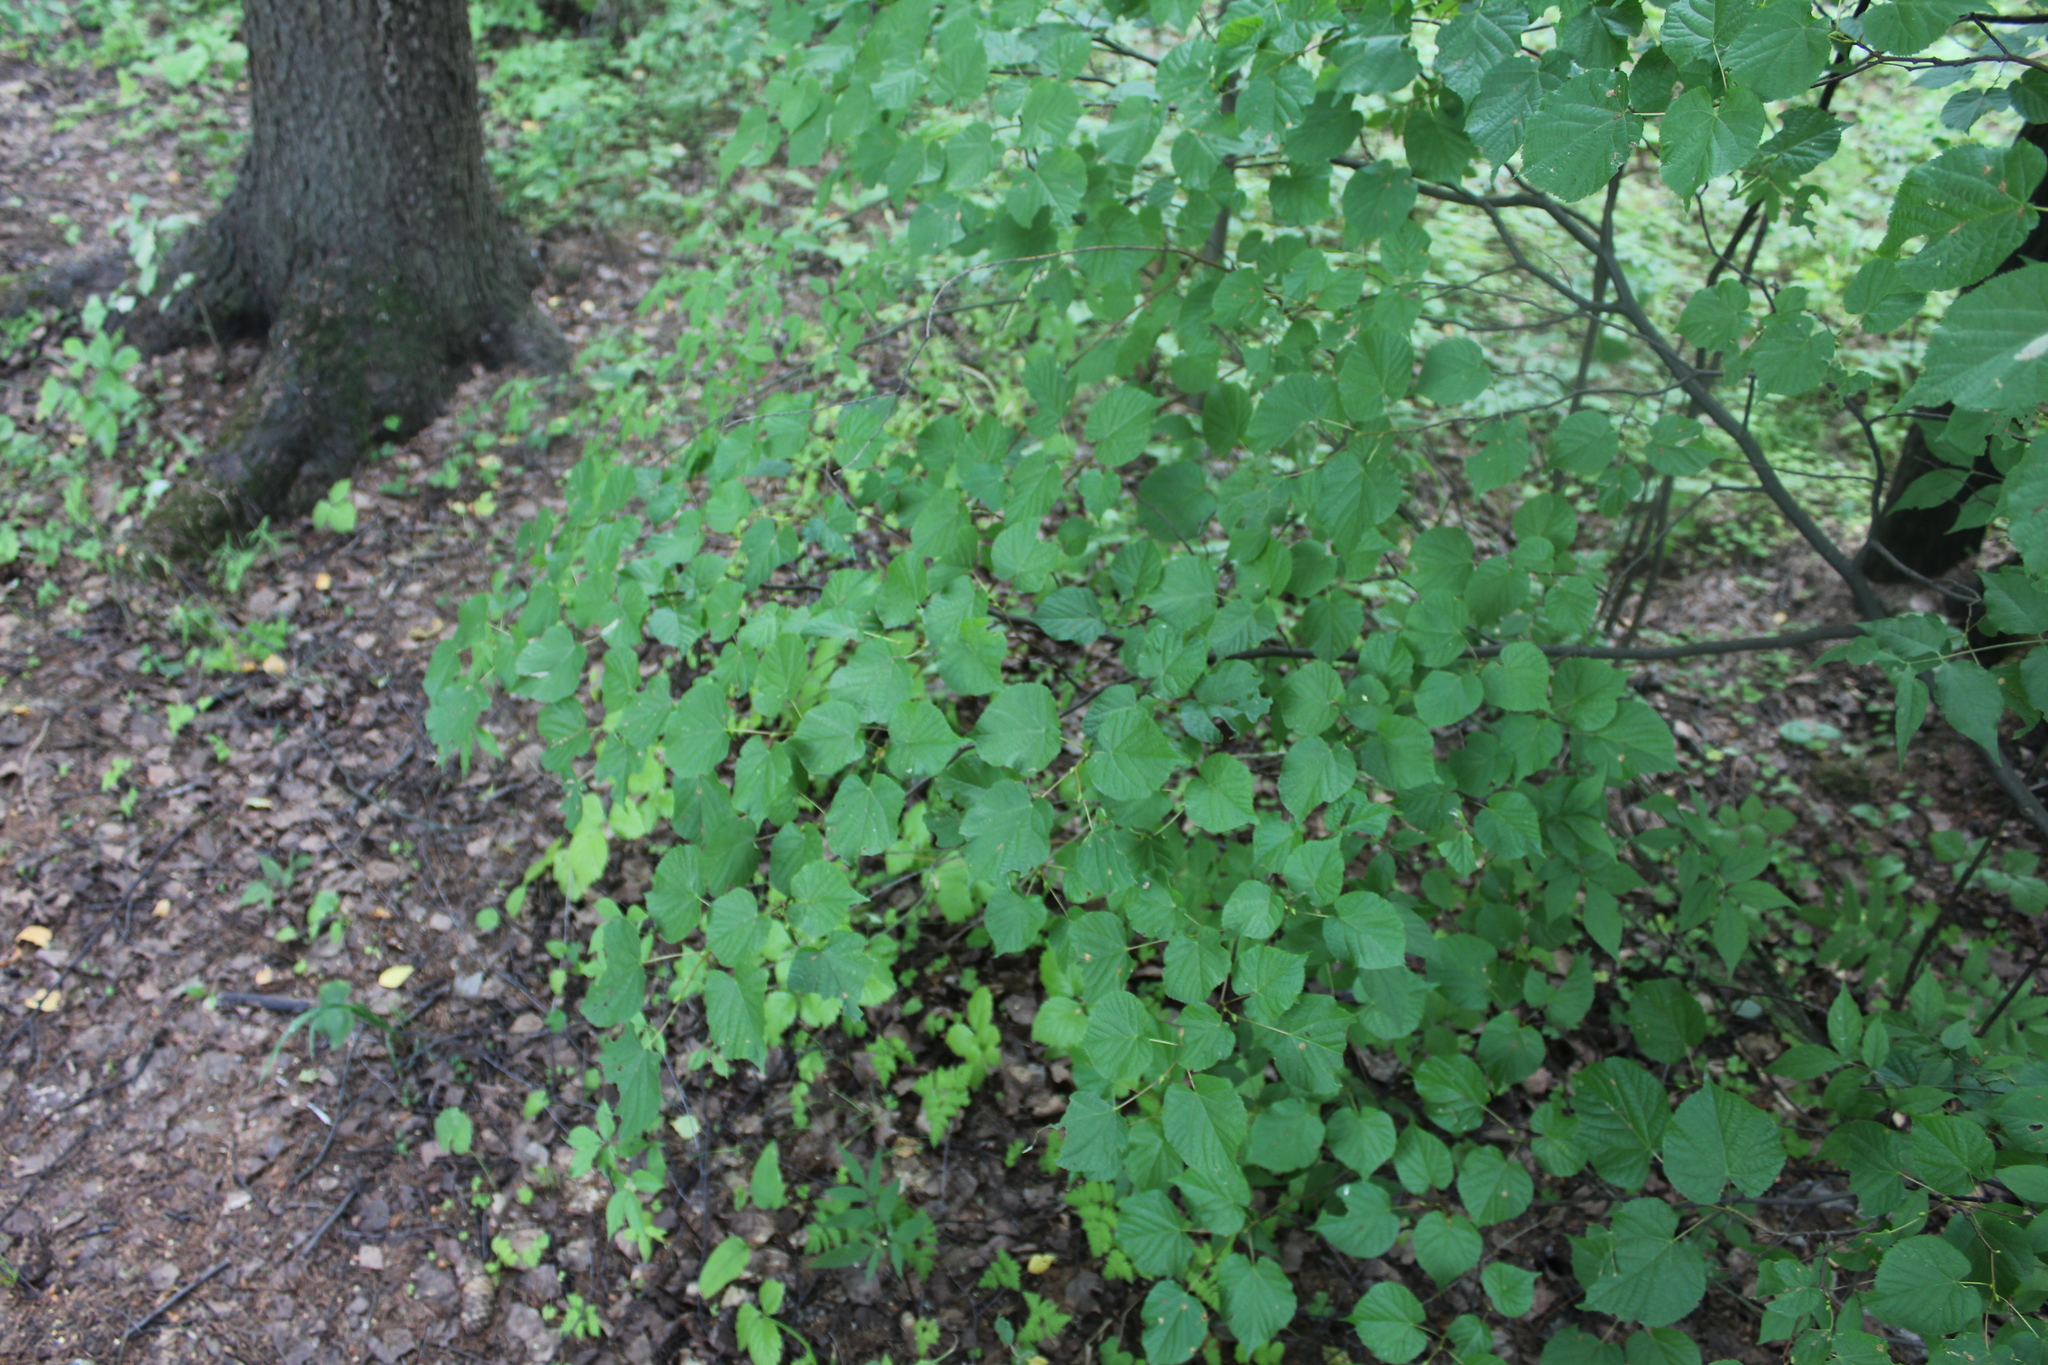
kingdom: Plantae
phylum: Tracheophyta
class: Magnoliopsida
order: Malvales
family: Malvaceae
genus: Tilia
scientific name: Tilia cordata
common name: Small-leaved lime
